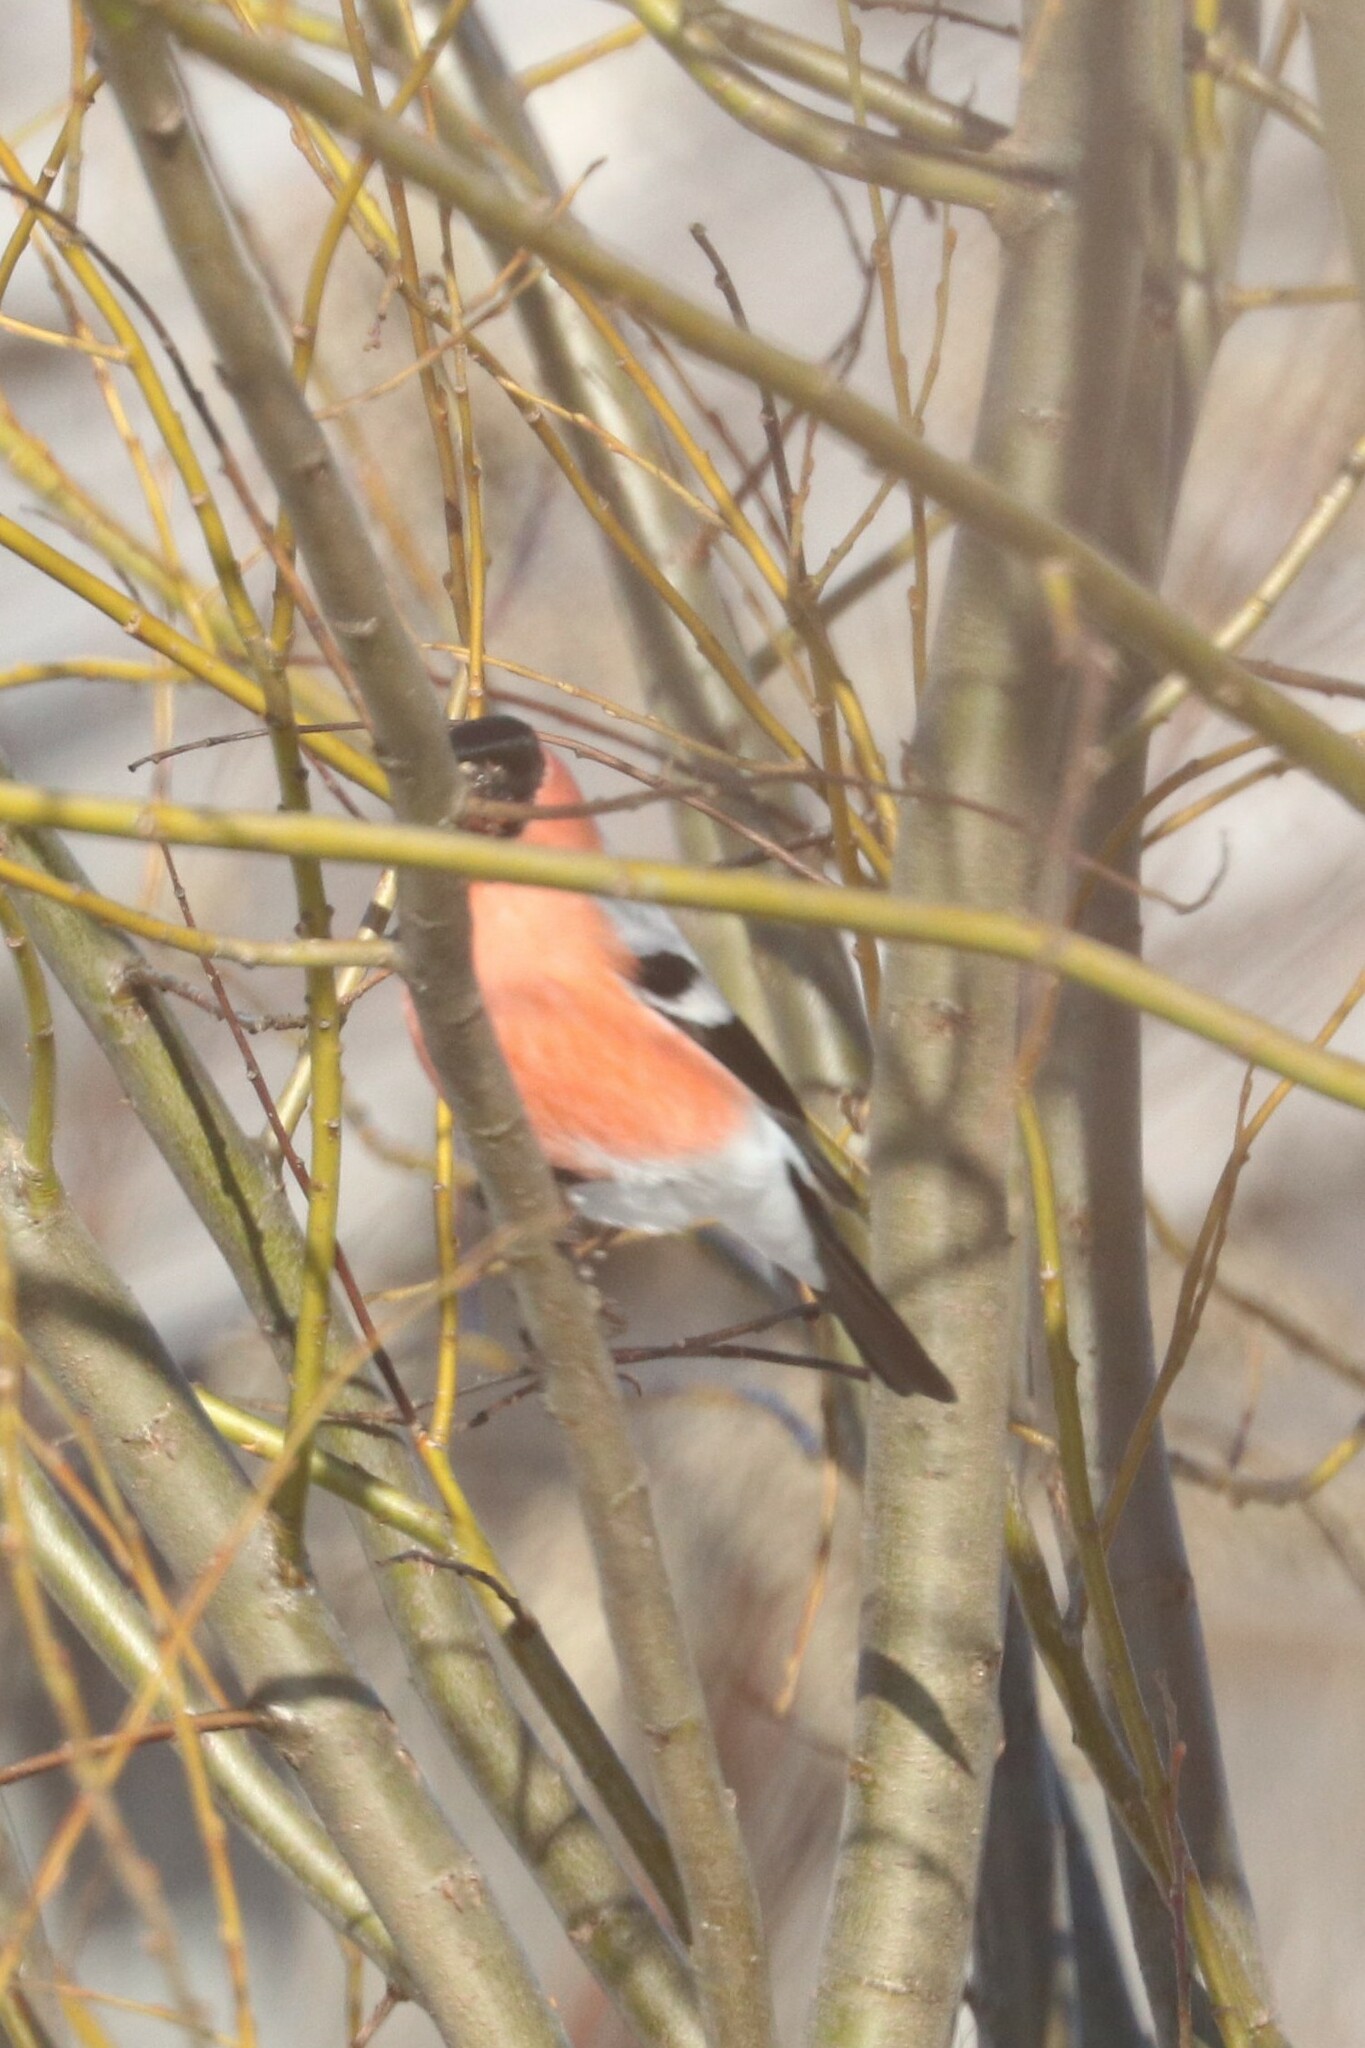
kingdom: Animalia
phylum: Chordata
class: Aves
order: Passeriformes
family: Fringillidae
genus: Pyrrhula
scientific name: Pyrrhula pyrrhula
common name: Eurasian bullfinch
